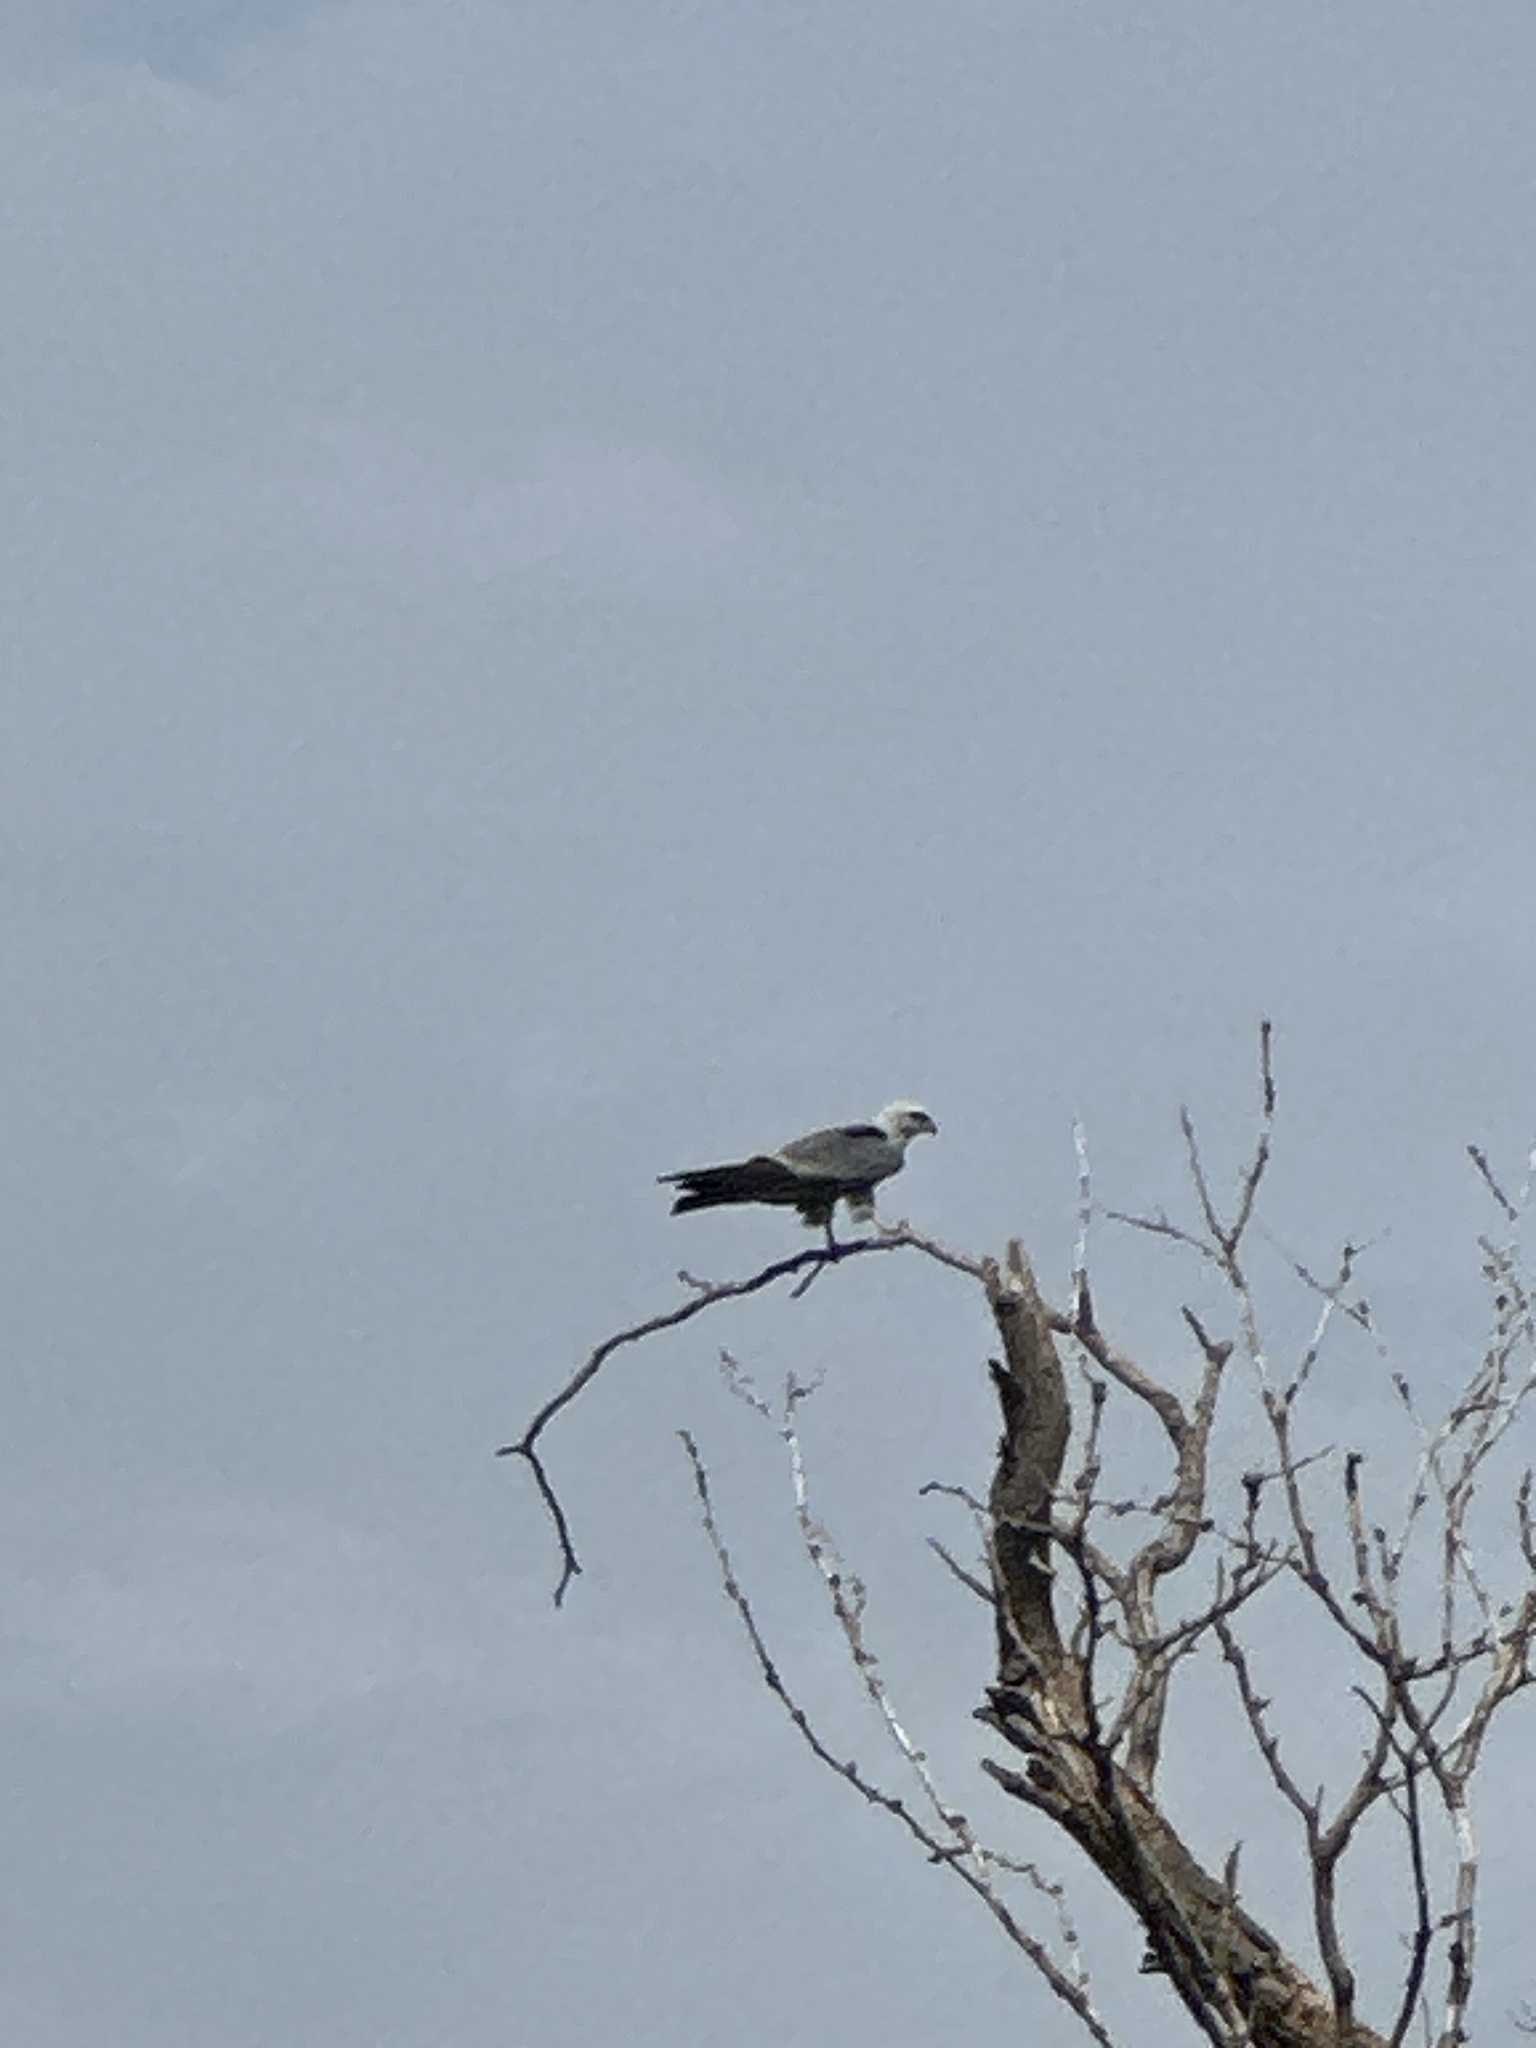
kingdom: Animalia
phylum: Chordata
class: Aves
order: Accipitriformes
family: Accipitridae
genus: Ictinia
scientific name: Ictinia mississippiensis
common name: Mississippi kite
